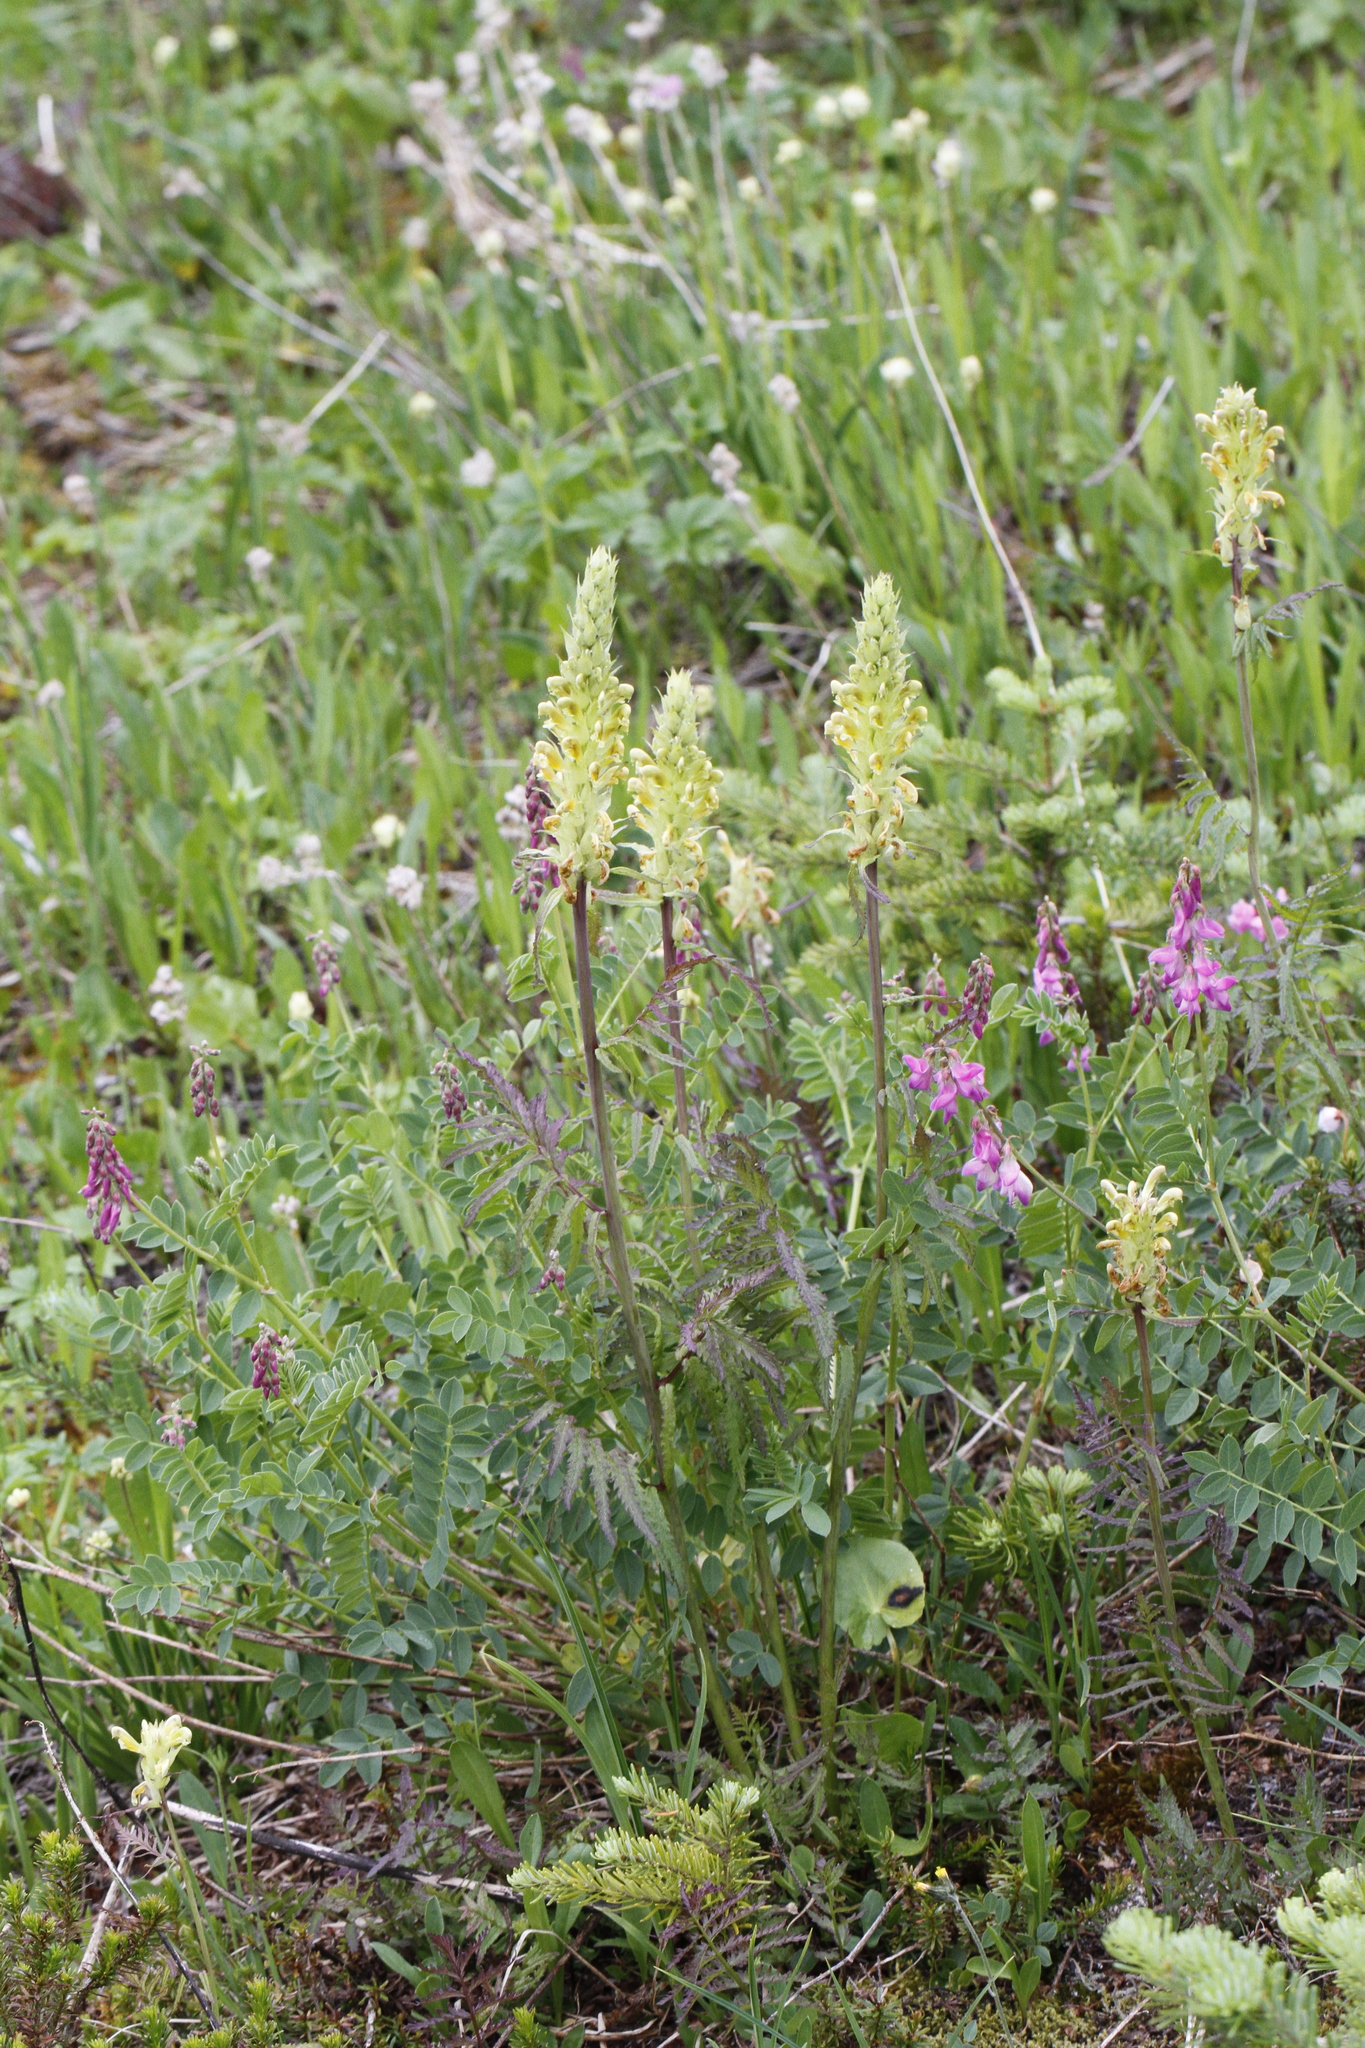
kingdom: Plantae
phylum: Tracheophyta
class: Magnoliopsida
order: Lamiales
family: Orobanchaceae
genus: Pedicularis
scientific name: Pedicularis bracteosa
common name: Bracted lousewort
